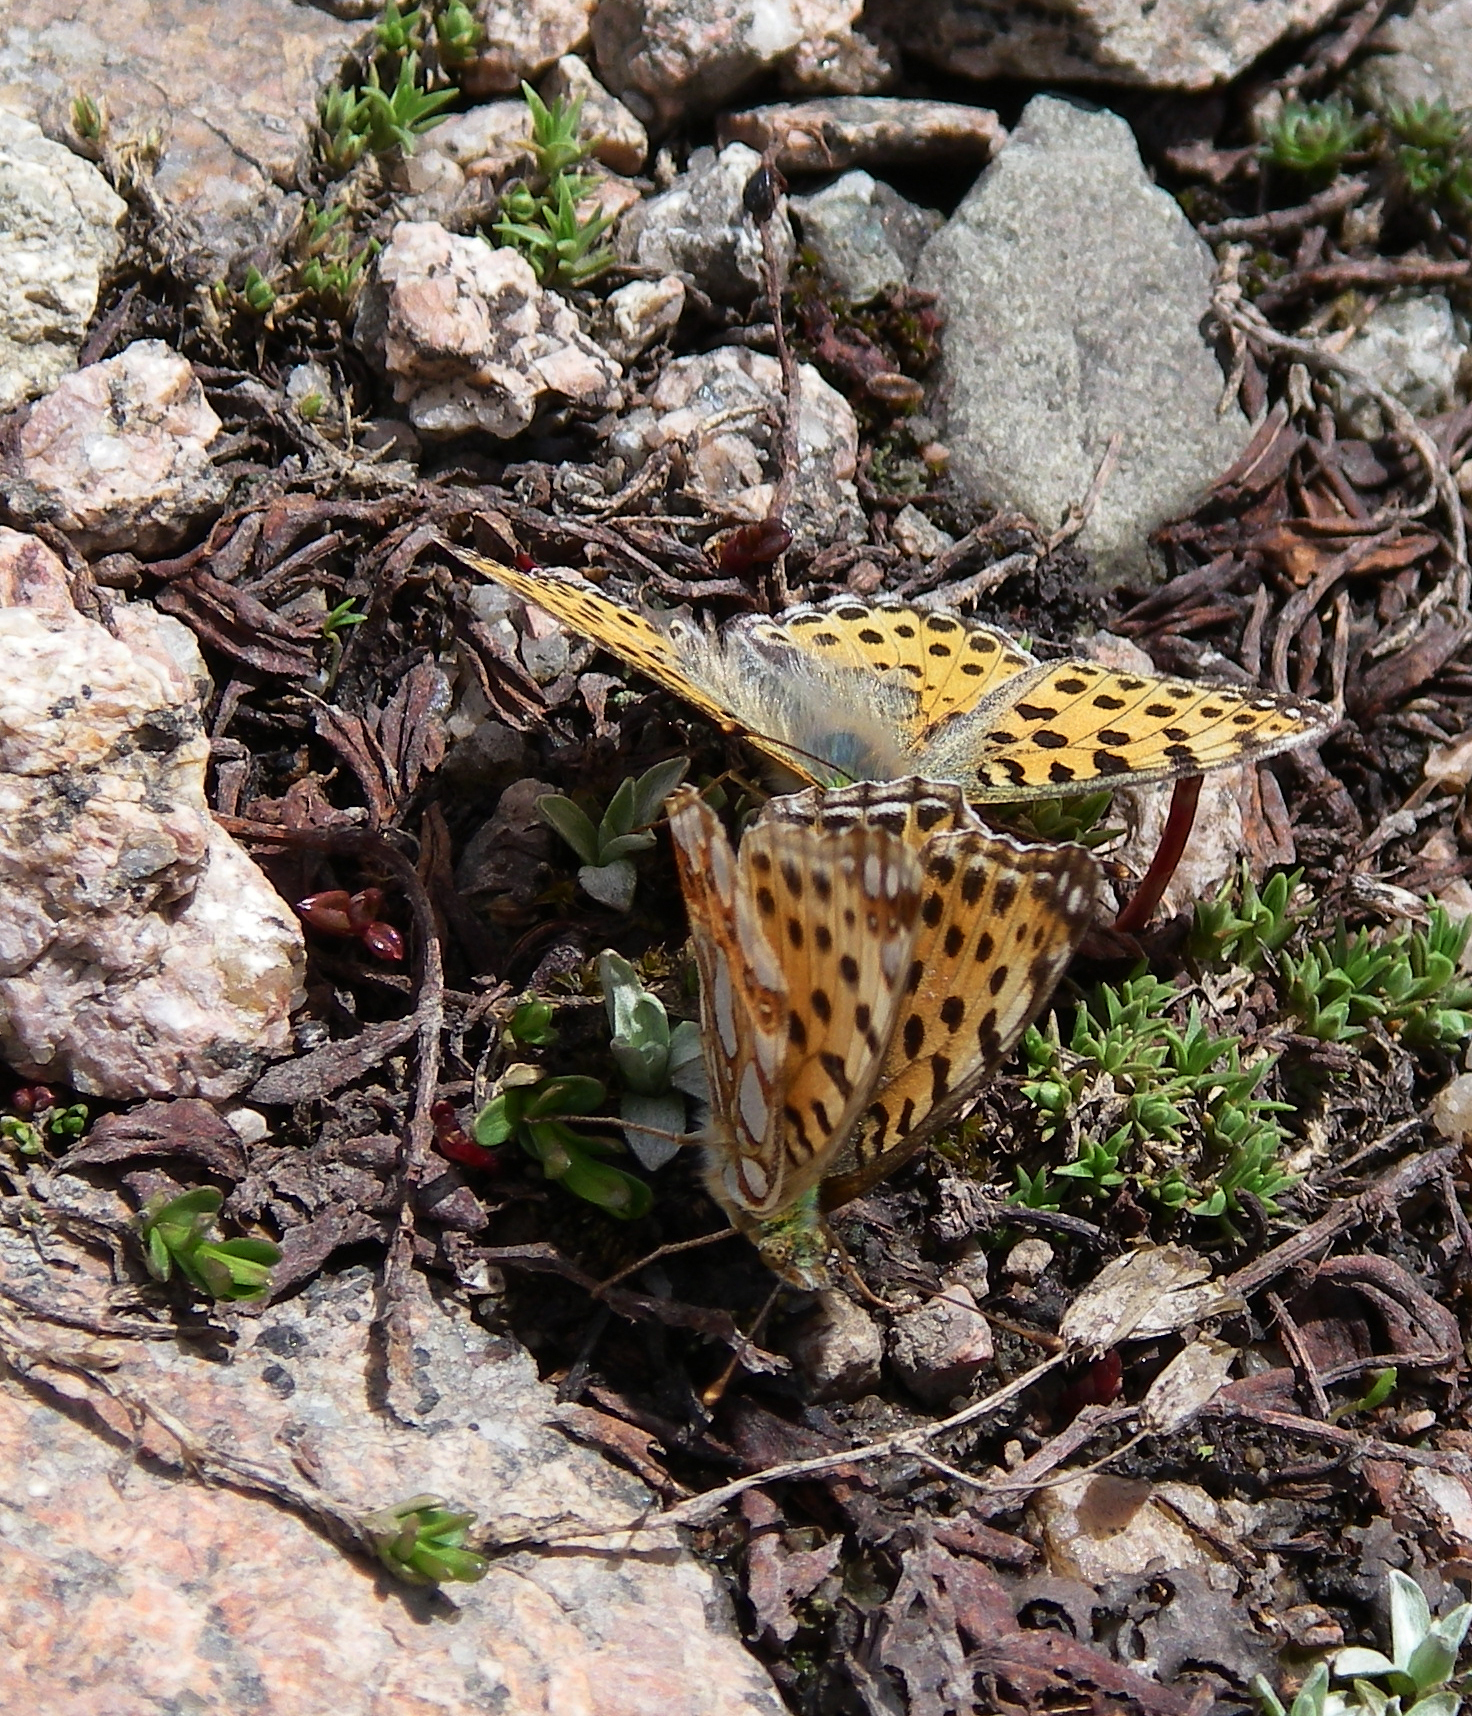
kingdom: Animalia
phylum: Arthropoda
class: Insecta
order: Lepidoptera
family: Nymphalidae
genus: Issoria
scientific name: Issoria lathonia
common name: Queen of spain fritillary
